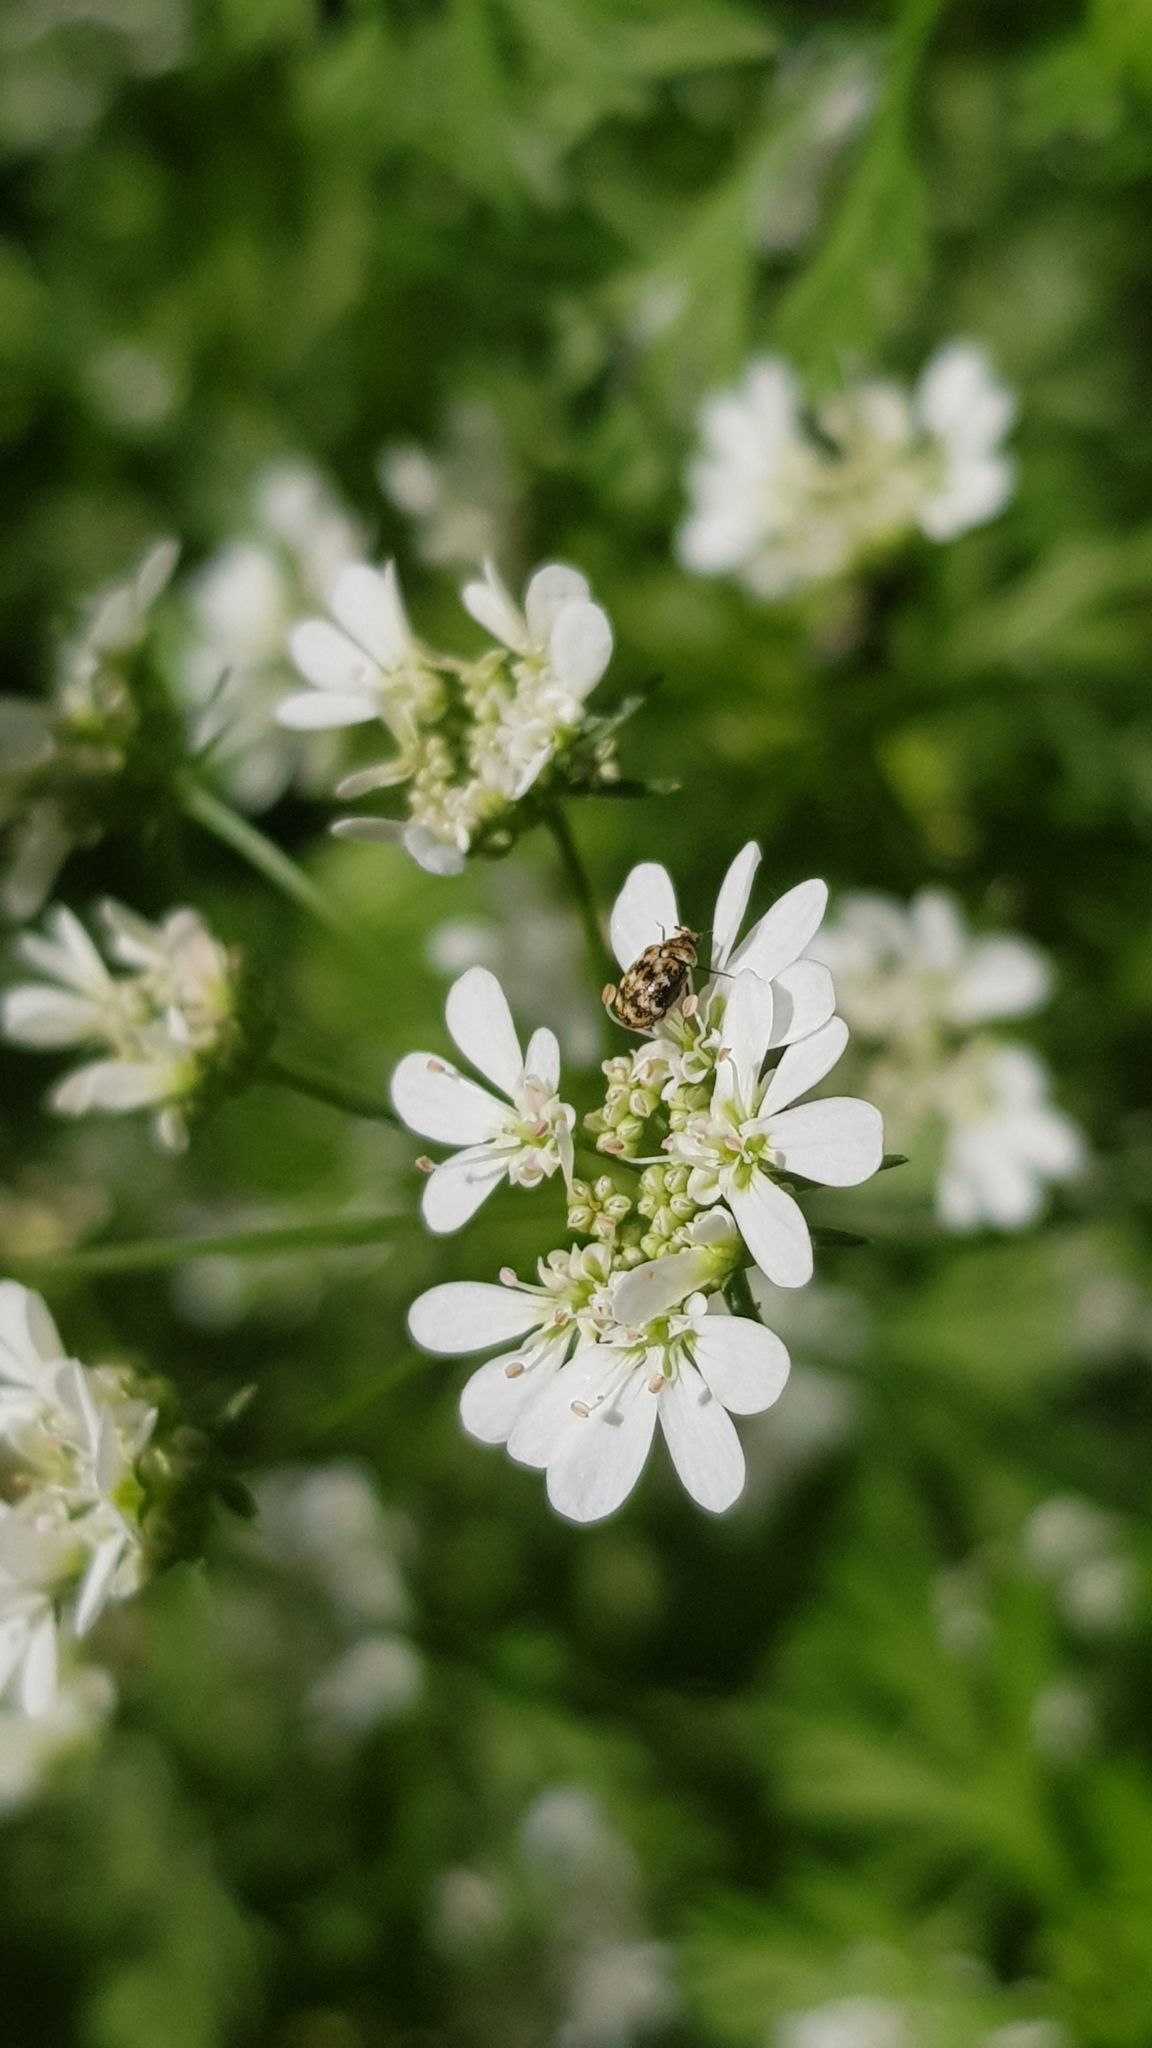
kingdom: Animalia
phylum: Arthropoda
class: Insecta
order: Coleoptera
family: Dermestidae
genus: Anthrenus
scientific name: Anthrenus verbasci
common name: Varied carpet beetle
